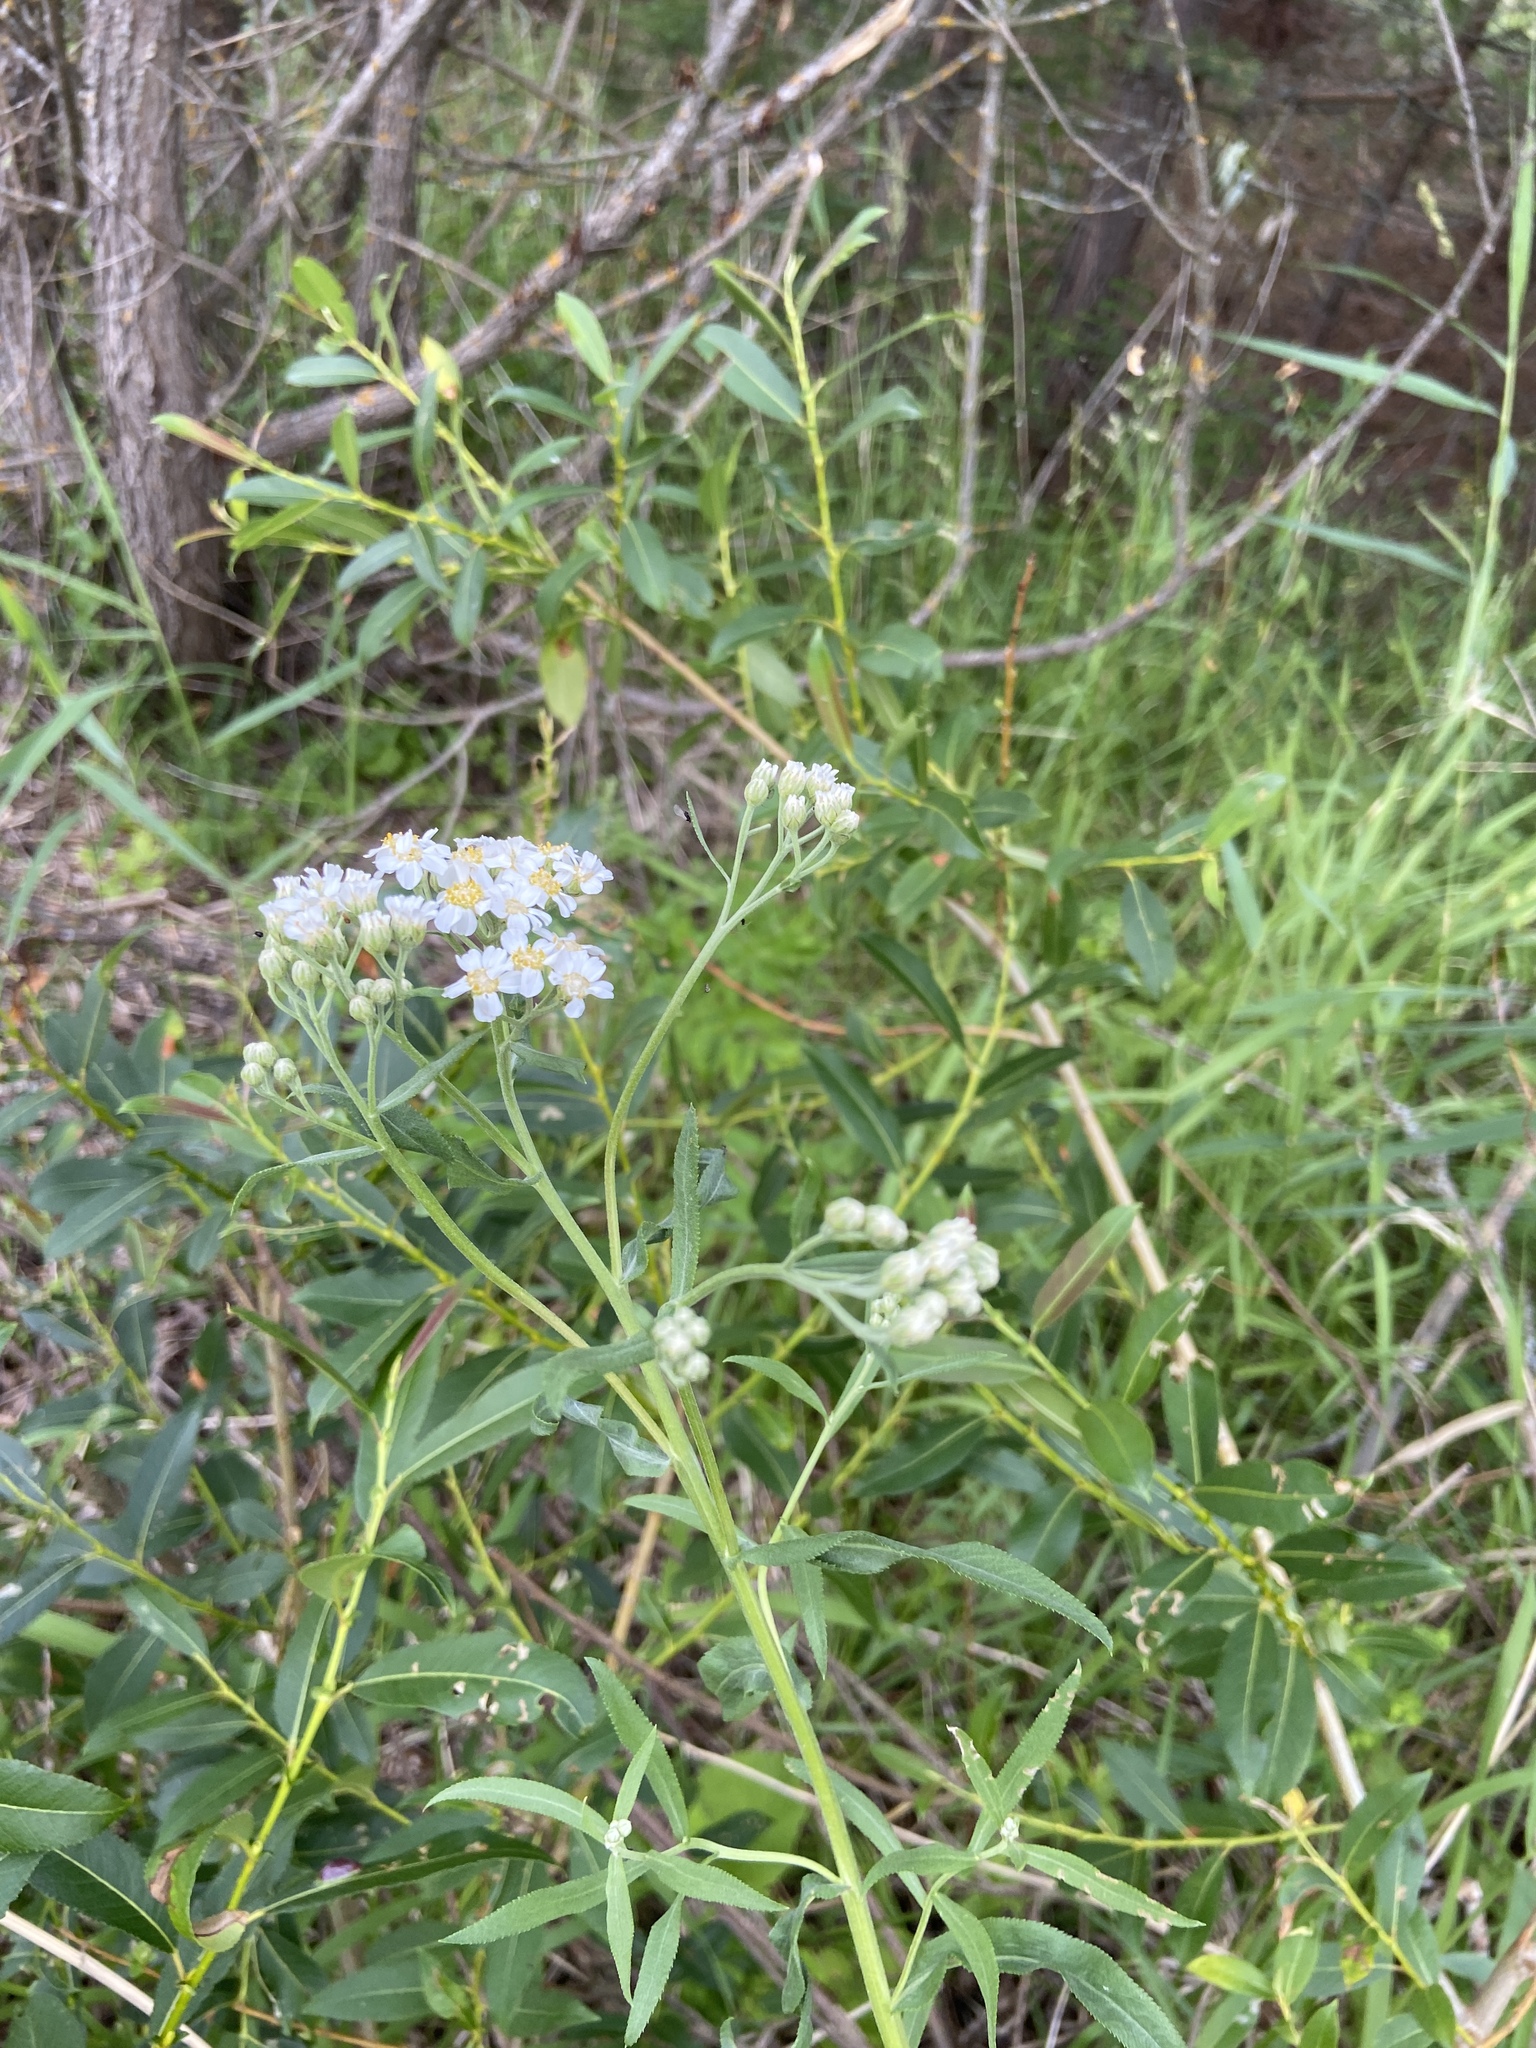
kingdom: Plantae
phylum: Tracheophyta
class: Magnoliopsida
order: Asterales
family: Asteraceae
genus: Achillea
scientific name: Achillea salicifolia
